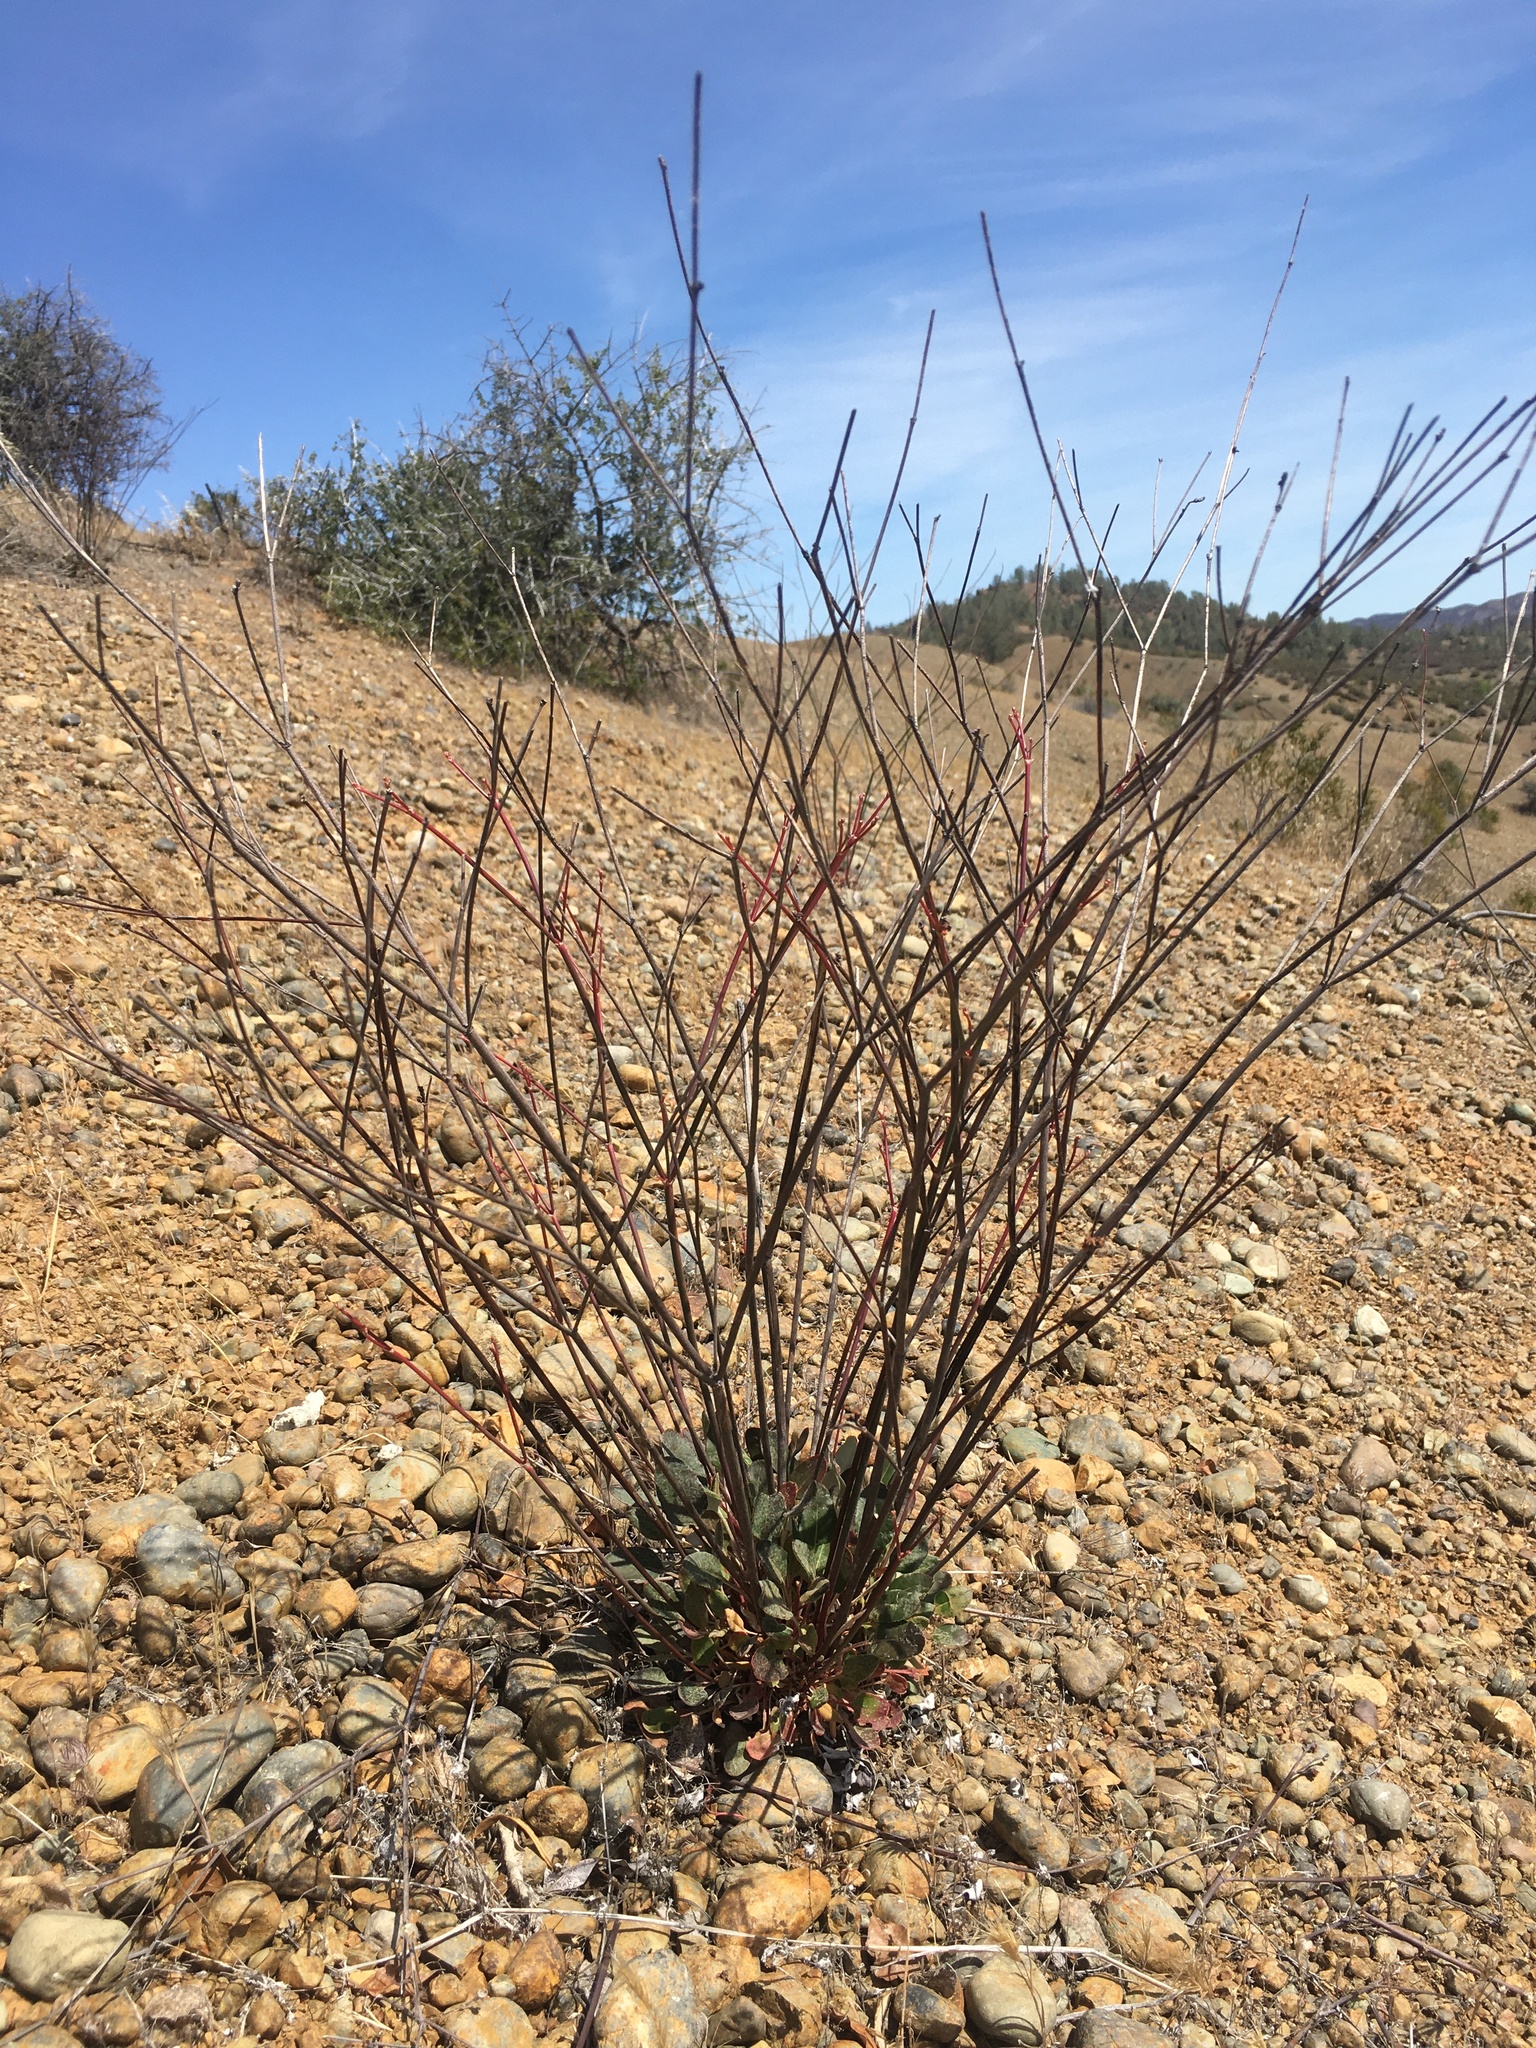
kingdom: Plantae
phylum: Tracheophyta
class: Magnoliopsida
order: Caryophyllales
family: Polygonaceae
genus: Eriogonum
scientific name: Eriogonum nudum
